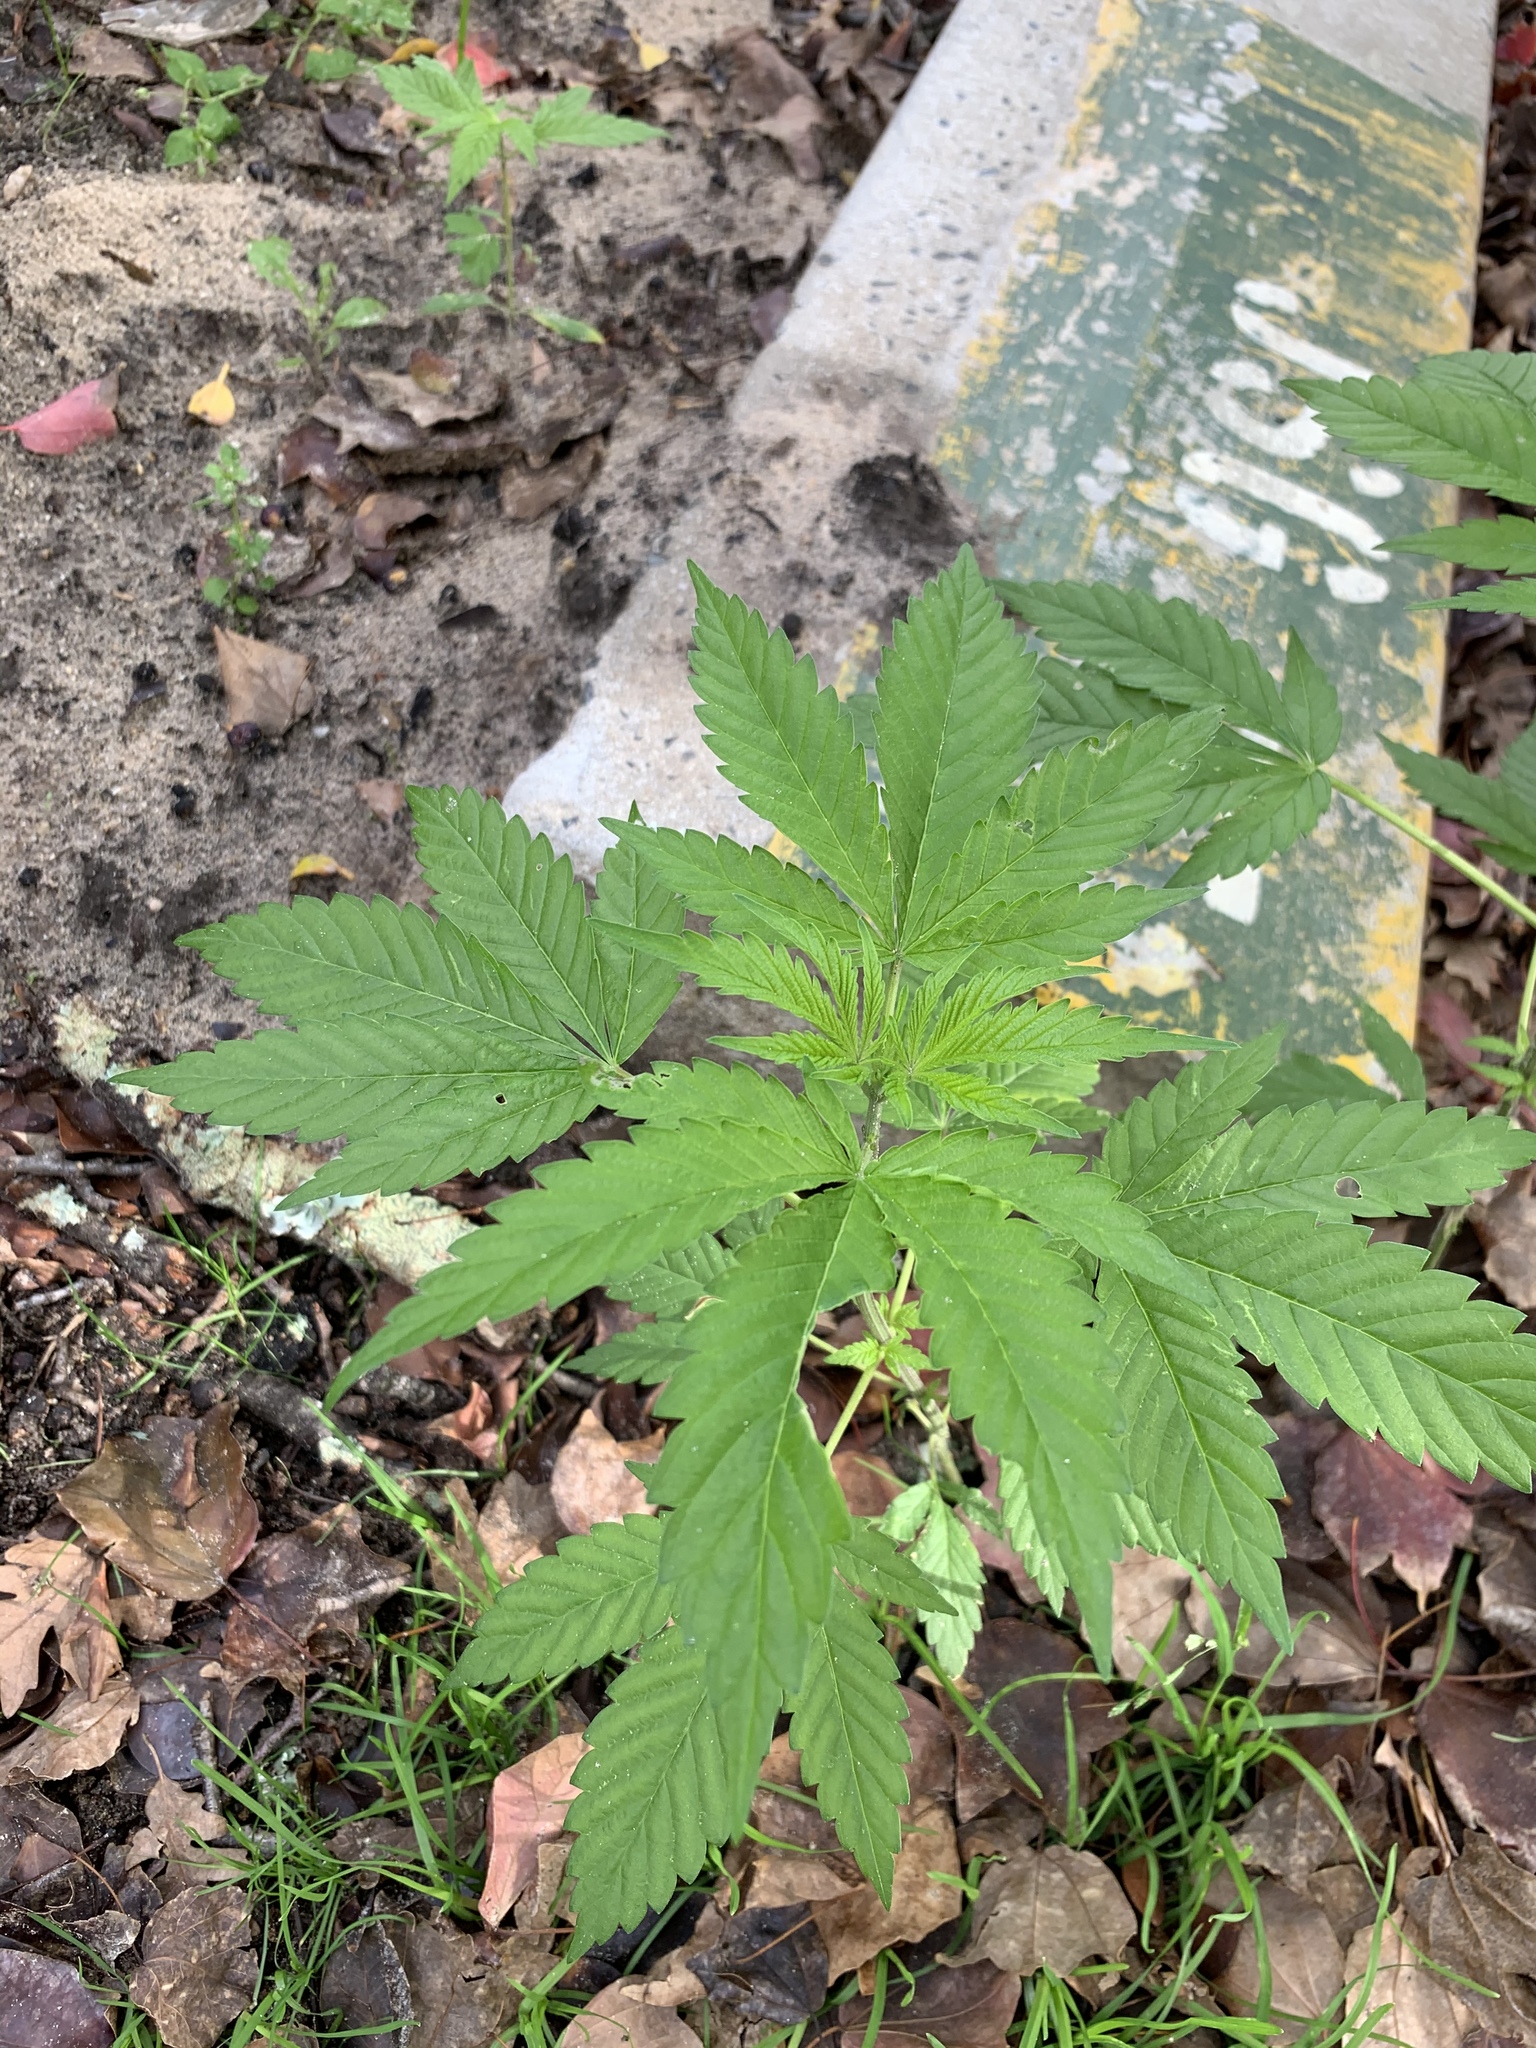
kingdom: Plantae
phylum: Tracheophyta
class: Magnoliopsida
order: Rosales
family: Cannabaceae
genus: Cannabis
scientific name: Cannabis sativa
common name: Hemp
